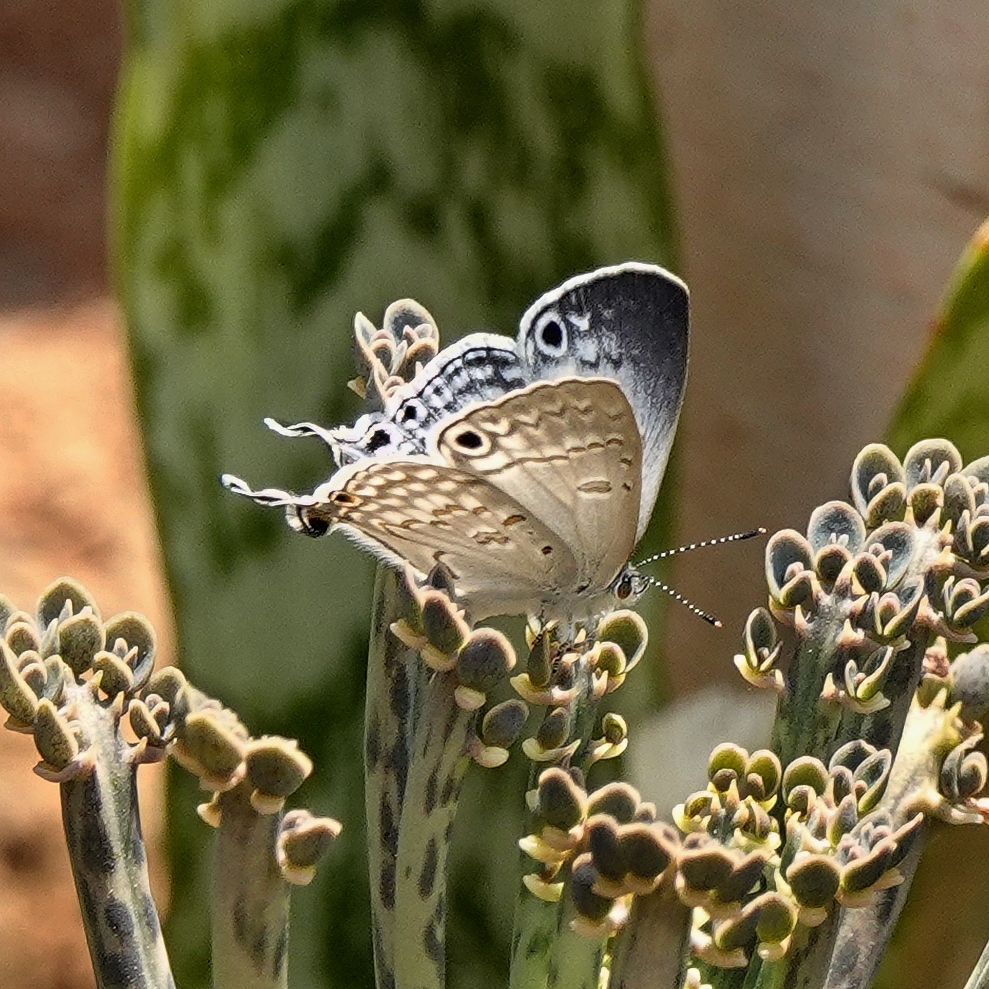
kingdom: Animalia
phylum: Arthropoda
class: Insecta
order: Lepidoptera
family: Lycaenidae
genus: Leptomyrina
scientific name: Leptomyrina phidias
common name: Madagascar black-eye
